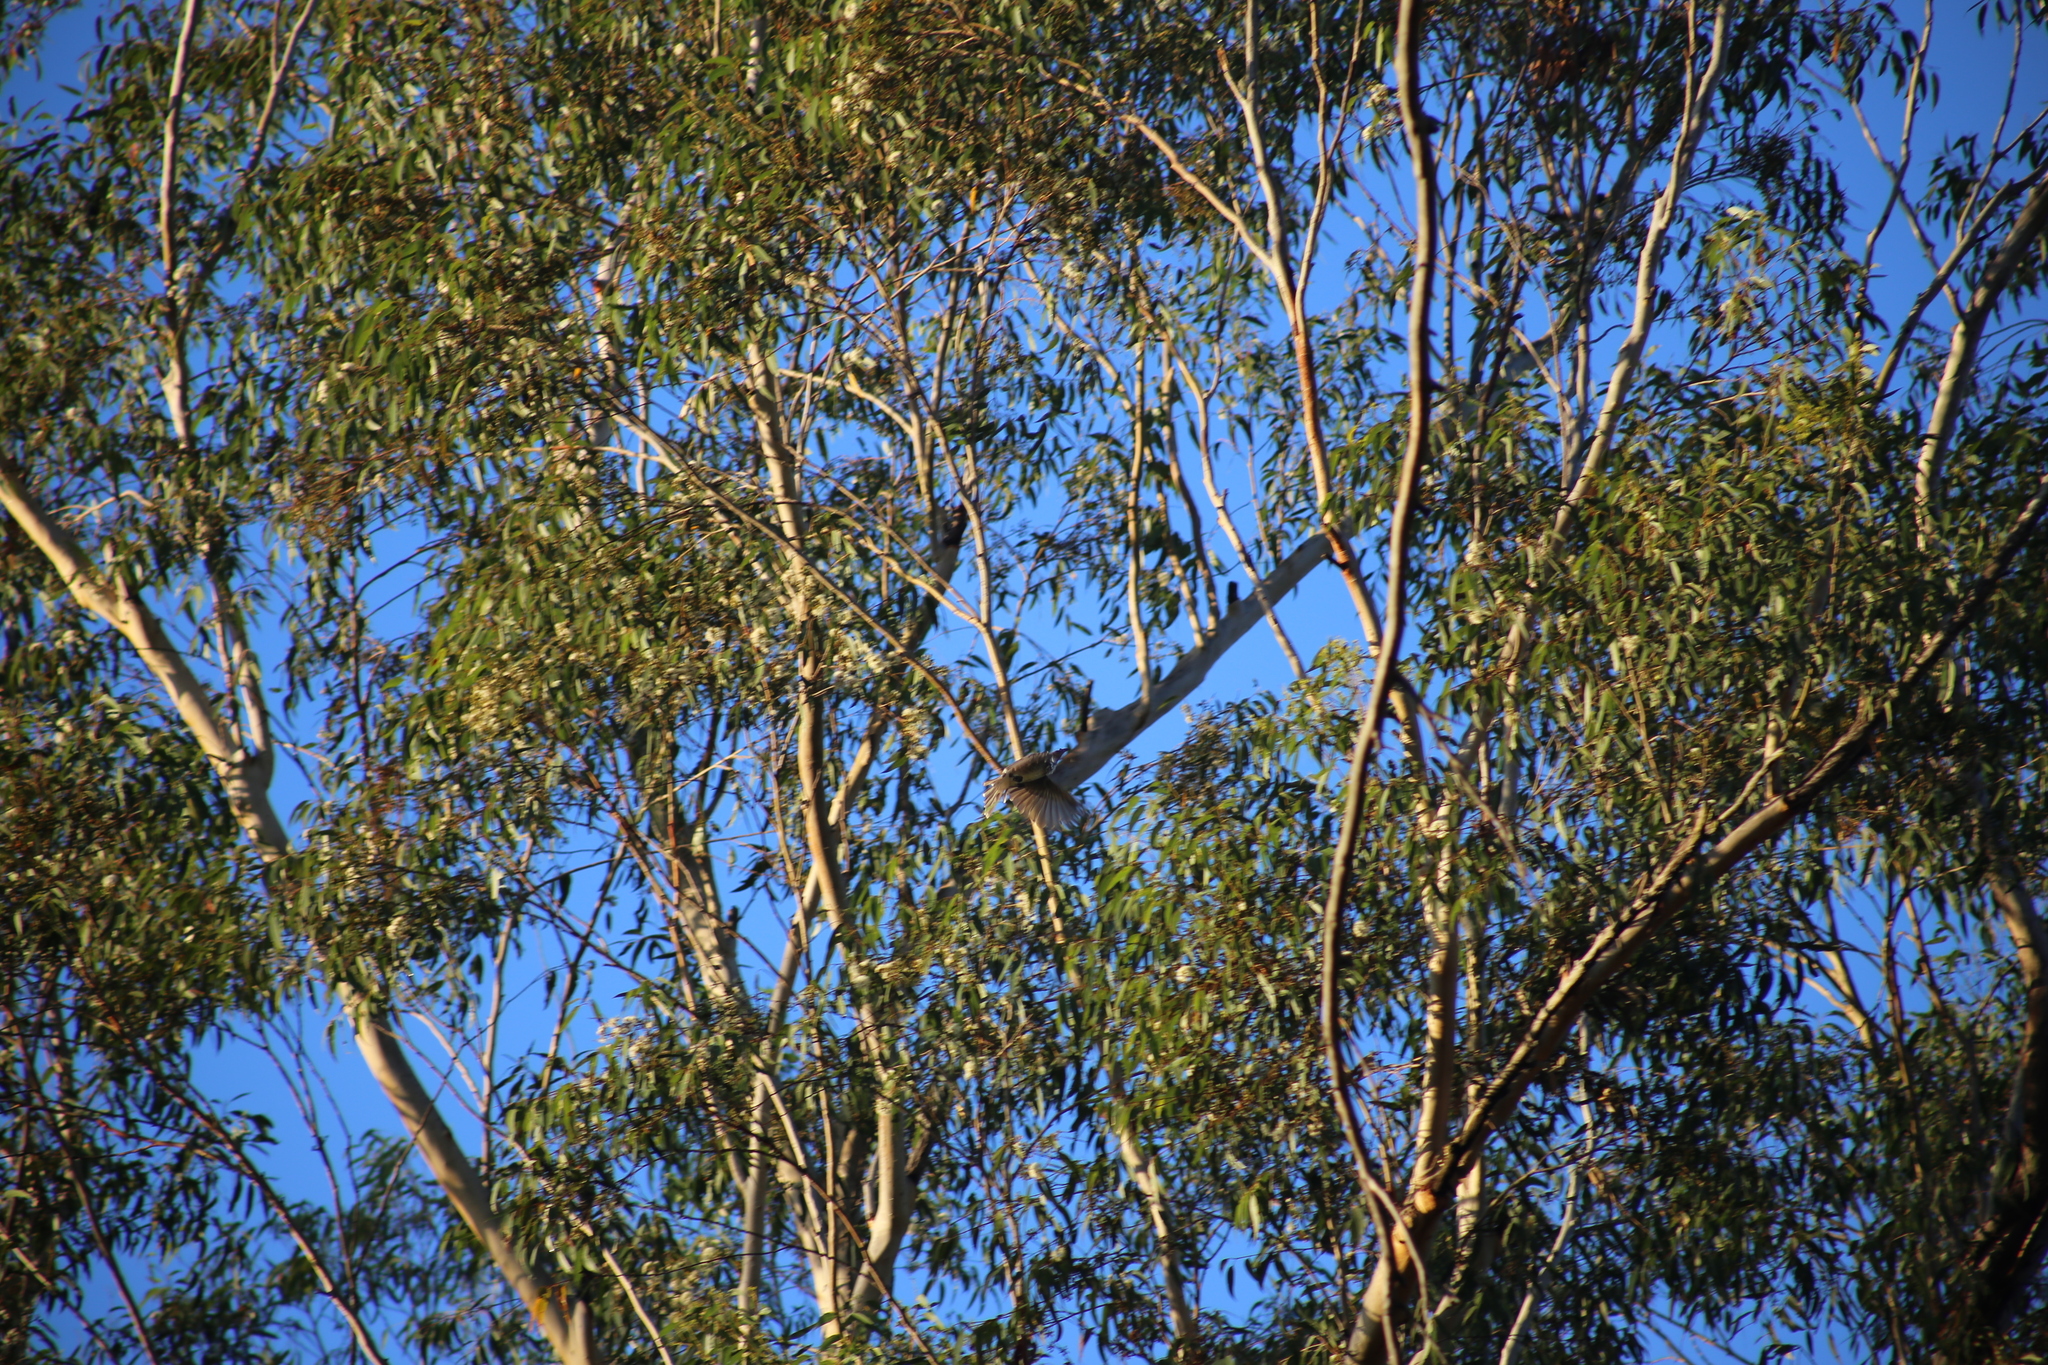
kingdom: Animalia
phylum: Chordata
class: Aves
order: Passeriformes
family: Meliphagidae
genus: Philemon
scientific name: Philemon corniculatus
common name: Noisy friarbird
